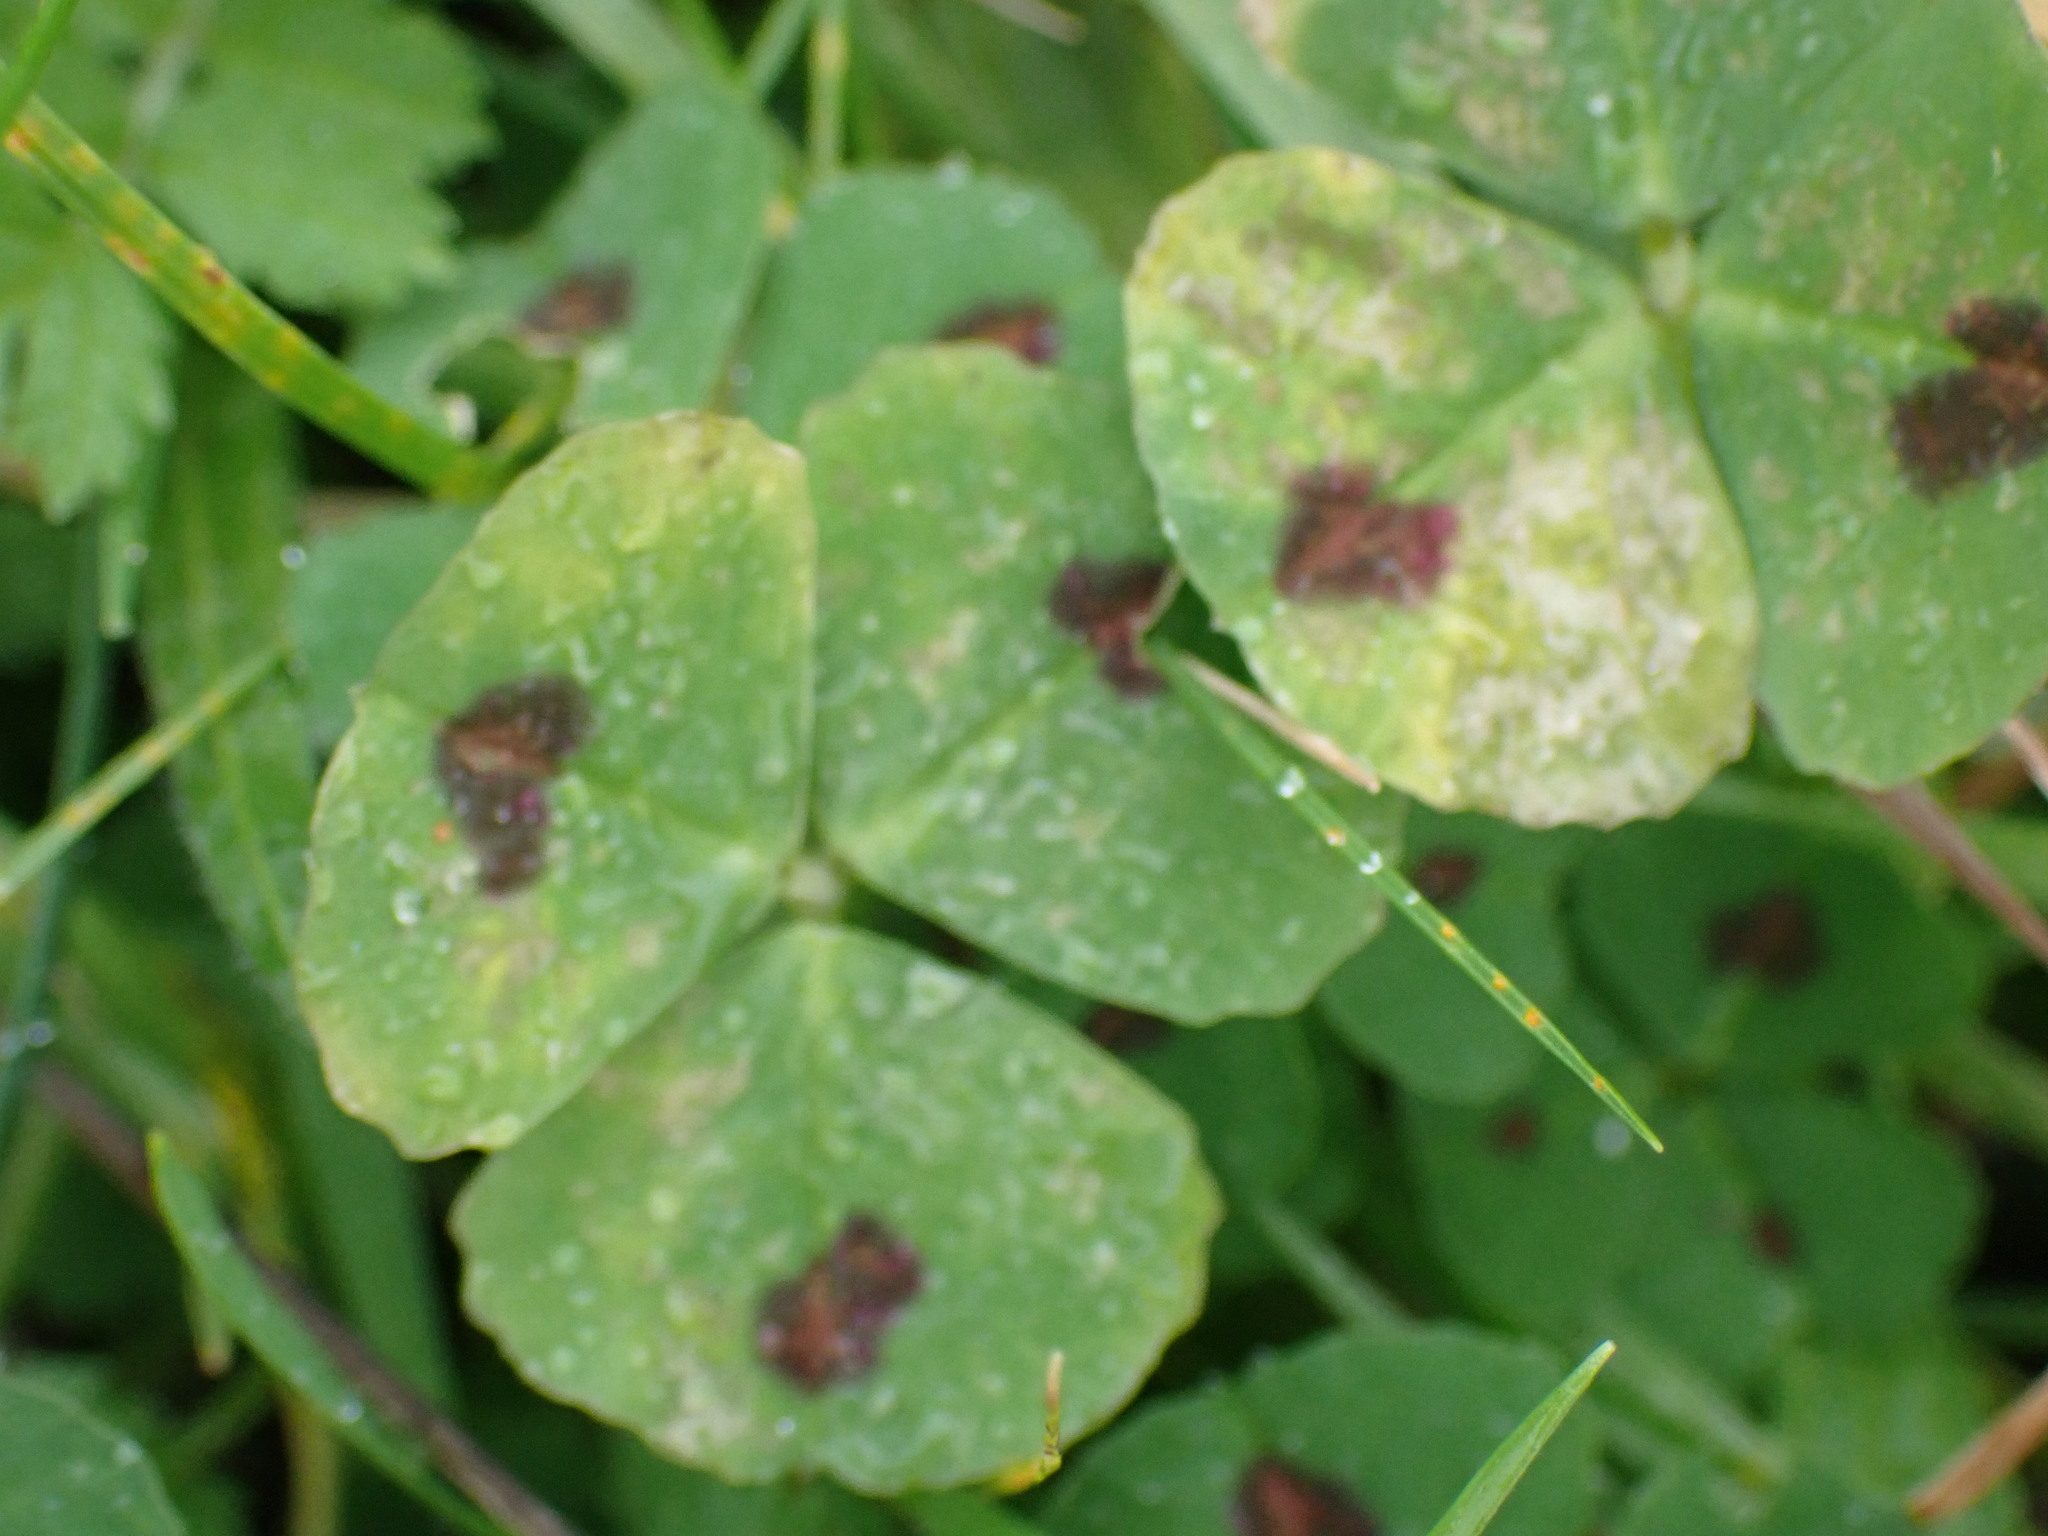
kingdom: Plantae
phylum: Tracheophyta
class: Magnoliopsida
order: Fabales
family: Fabaceae
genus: Medicago
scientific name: Medicago arabica
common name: Spotted medick
